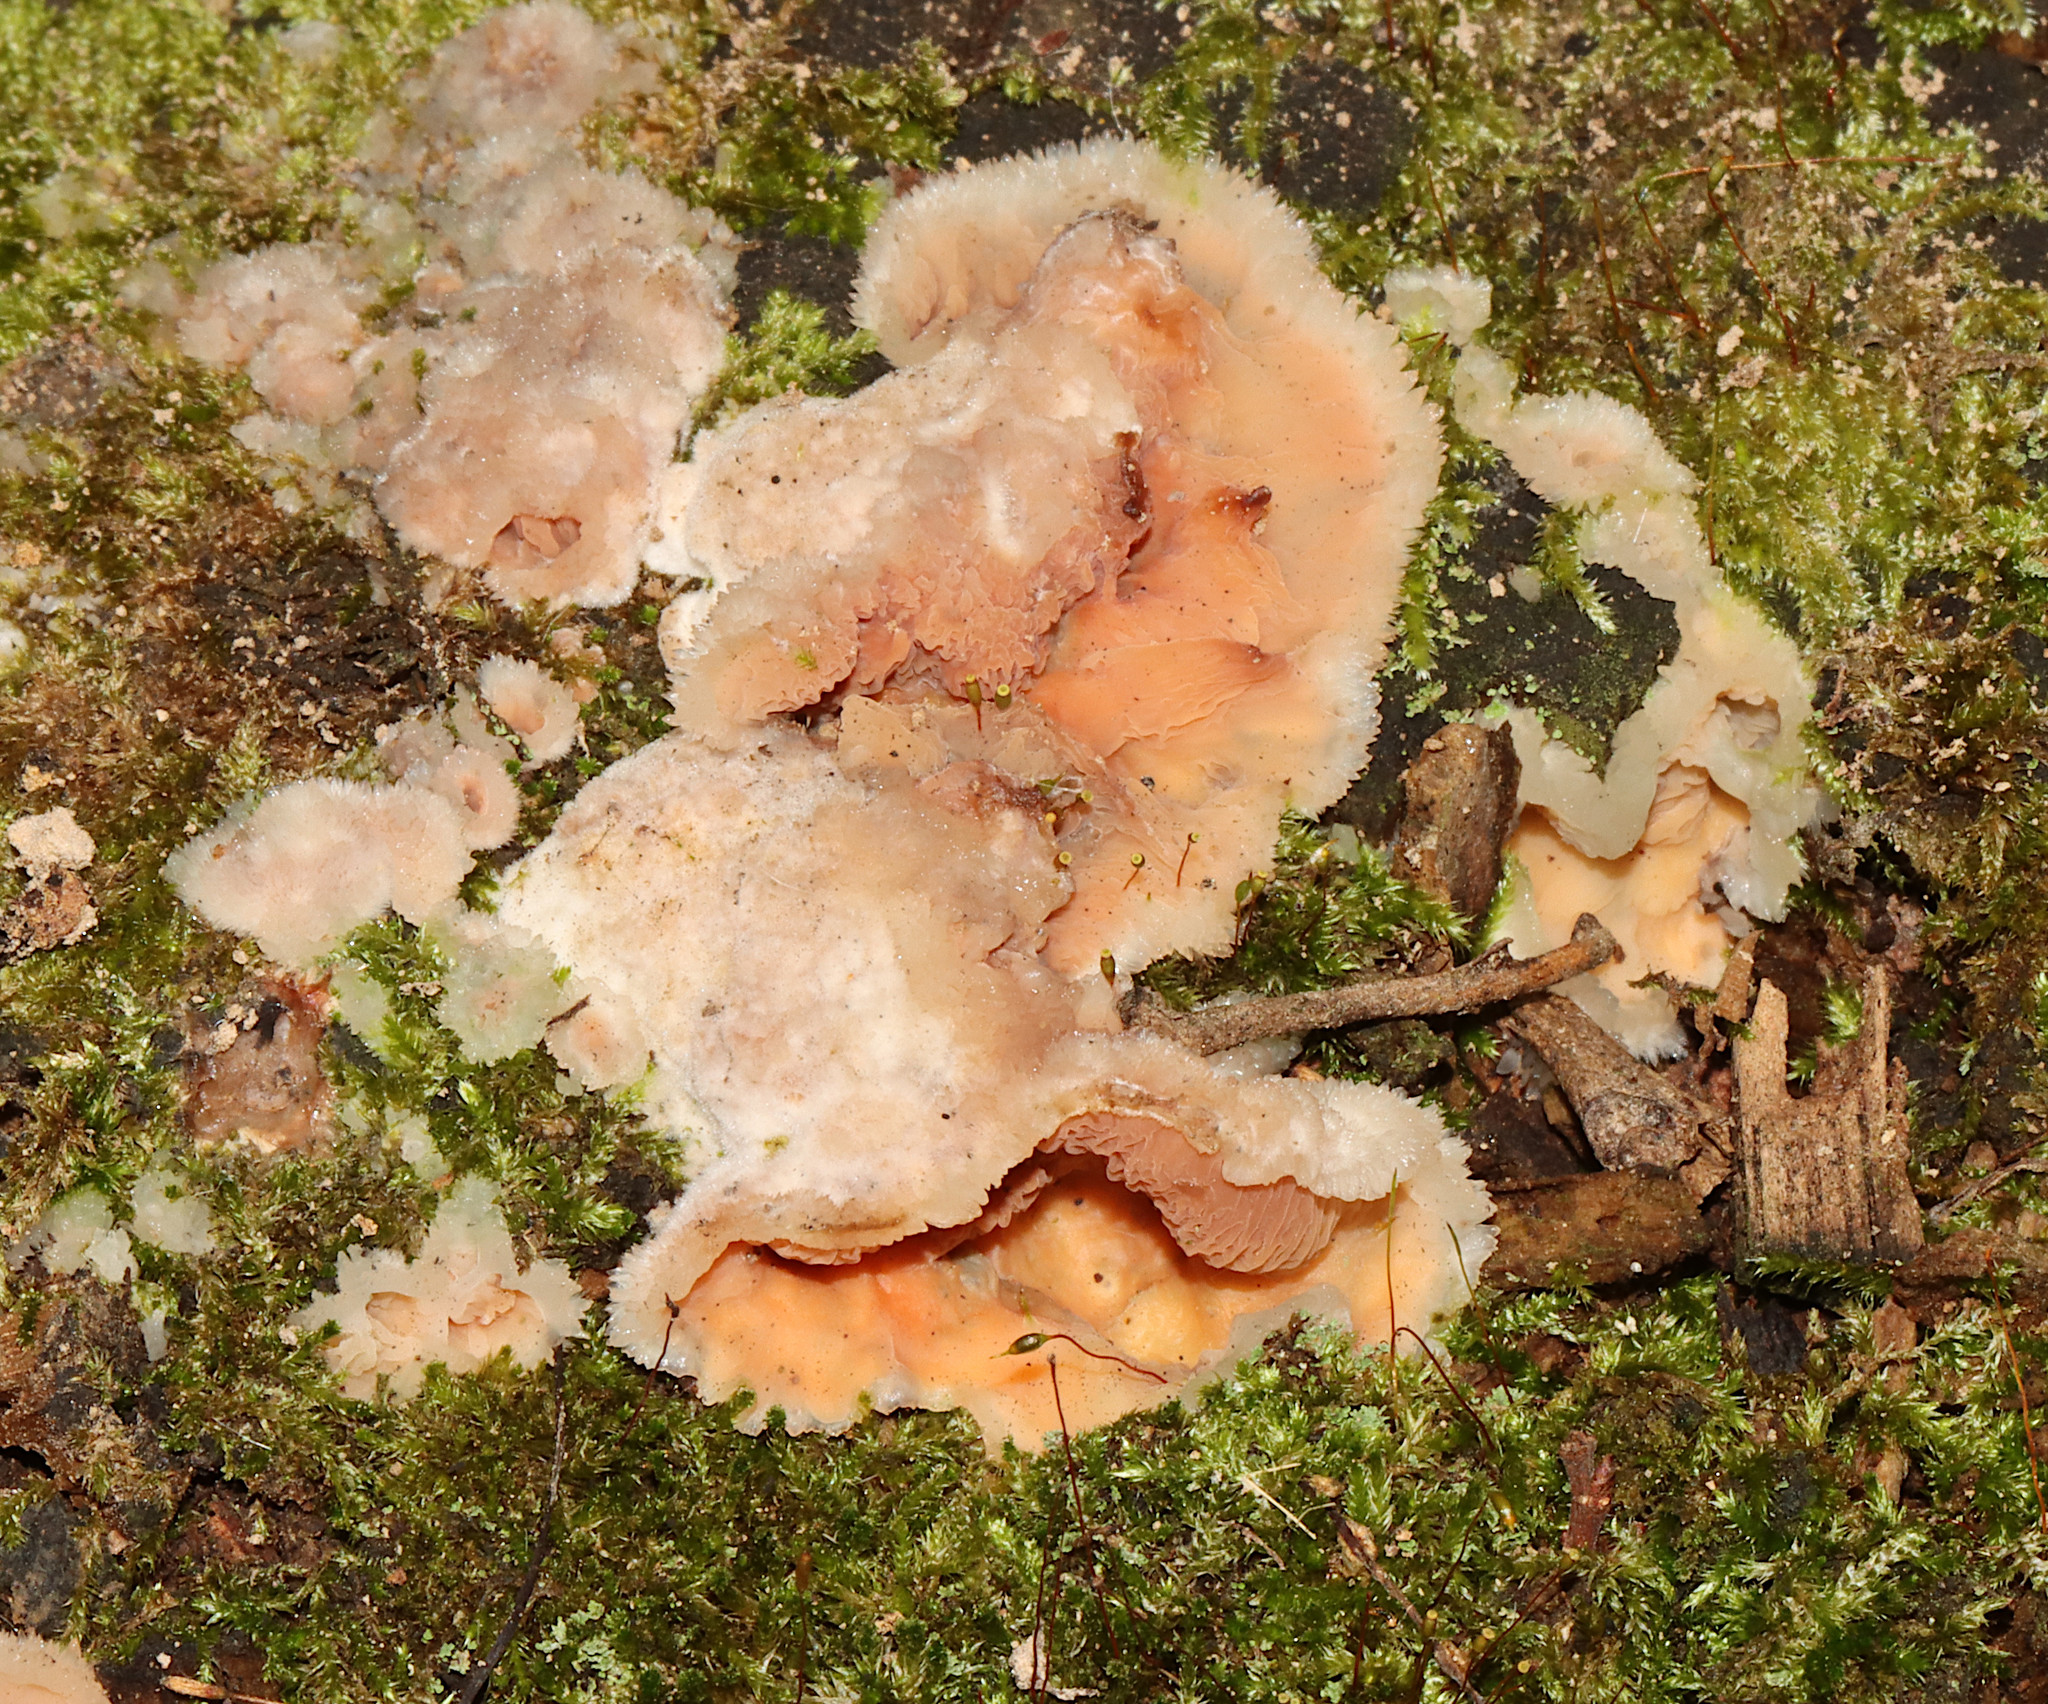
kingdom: Fungi
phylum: Basidiomycota
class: Agaricomycetes
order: Polyporales
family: Meruliaceae
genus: Phlebia
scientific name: Phlebia tremellosa
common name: Jelly rot
